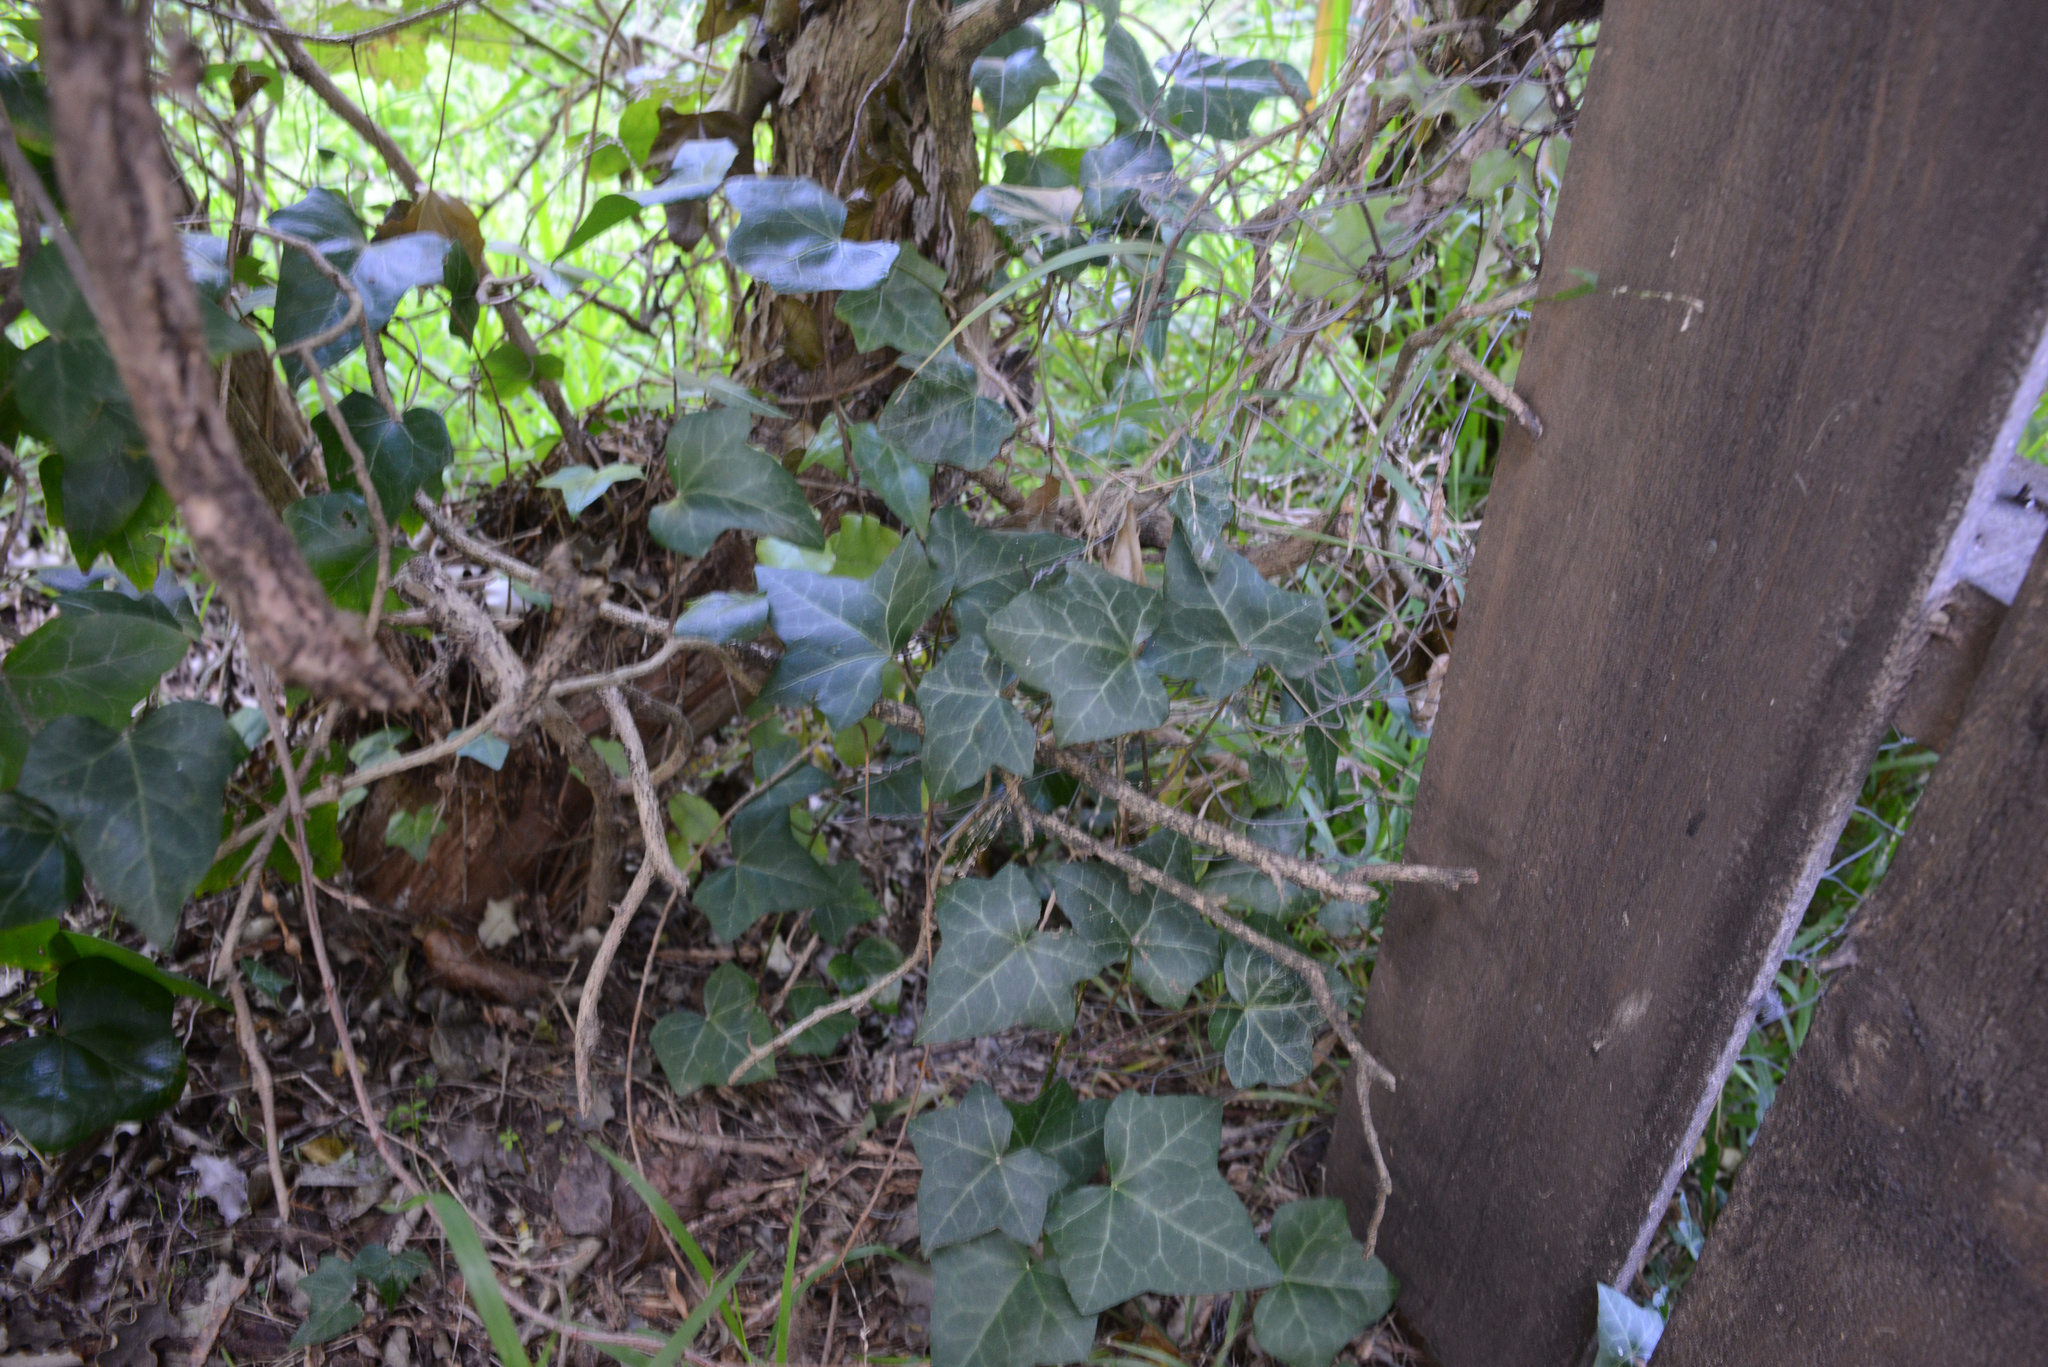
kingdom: Plantae
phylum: Tracheophyta
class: Magnoliopsida
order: Apiales
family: Araliaceae
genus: Hedera
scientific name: Hedera helix
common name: Ivy
